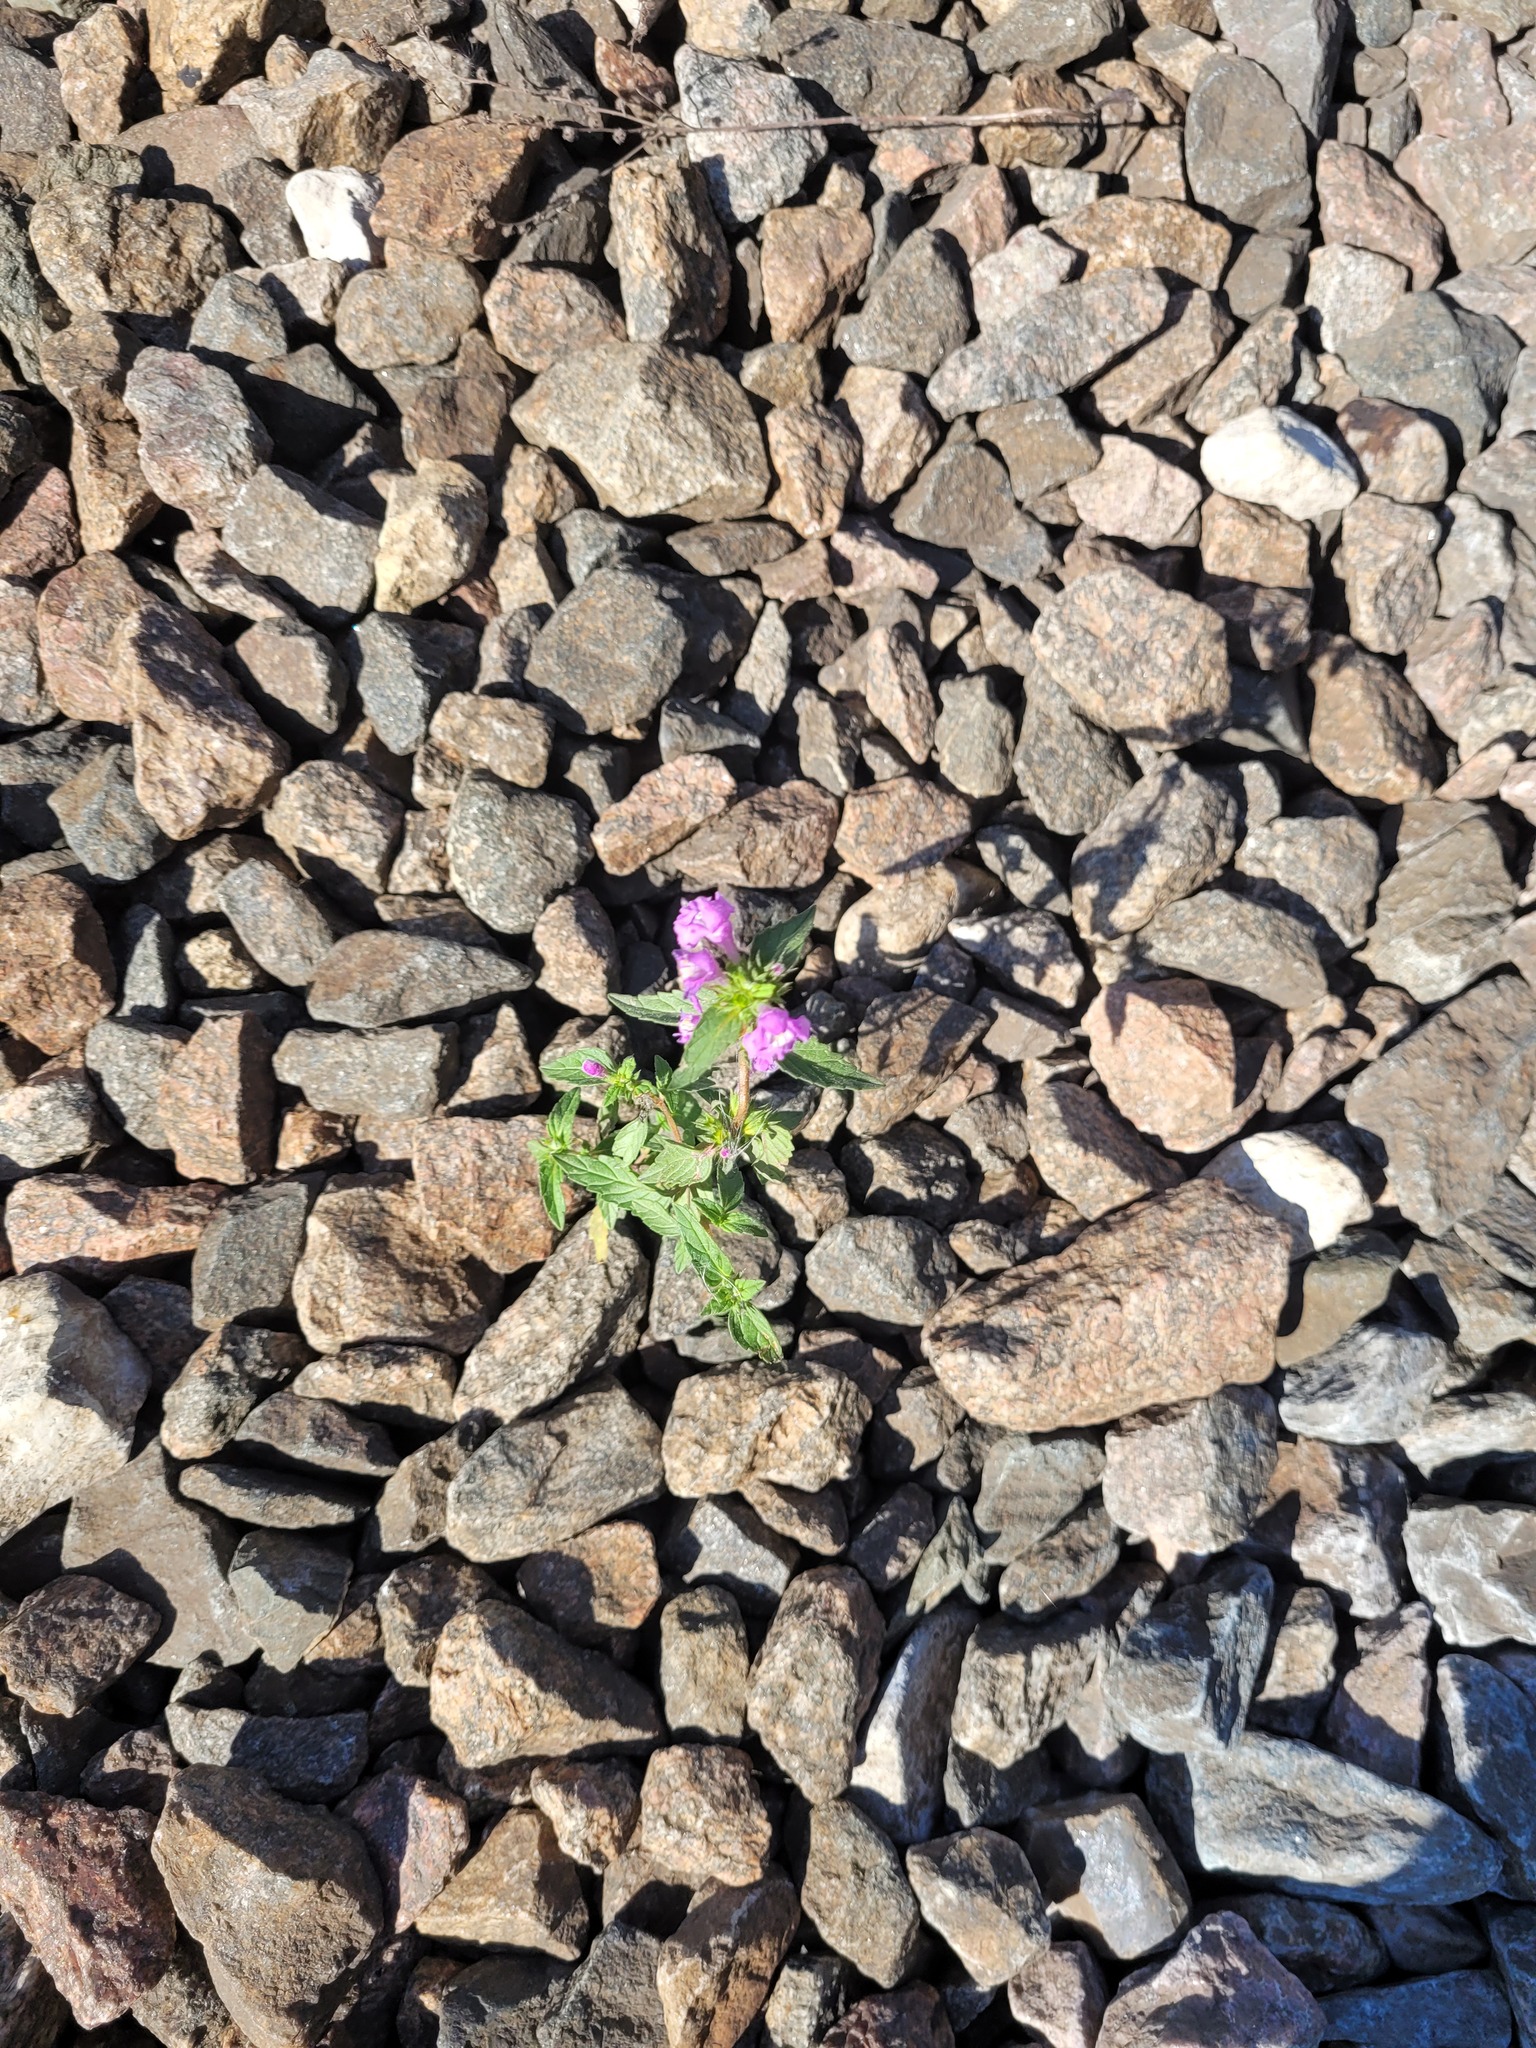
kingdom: Plantae
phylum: Tracheophyta
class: Magnoliopsida
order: Lamiales
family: Lamiaceae
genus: Galeopsis
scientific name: Galeopsis ladanum
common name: Broad-leaved hemp-nettle
